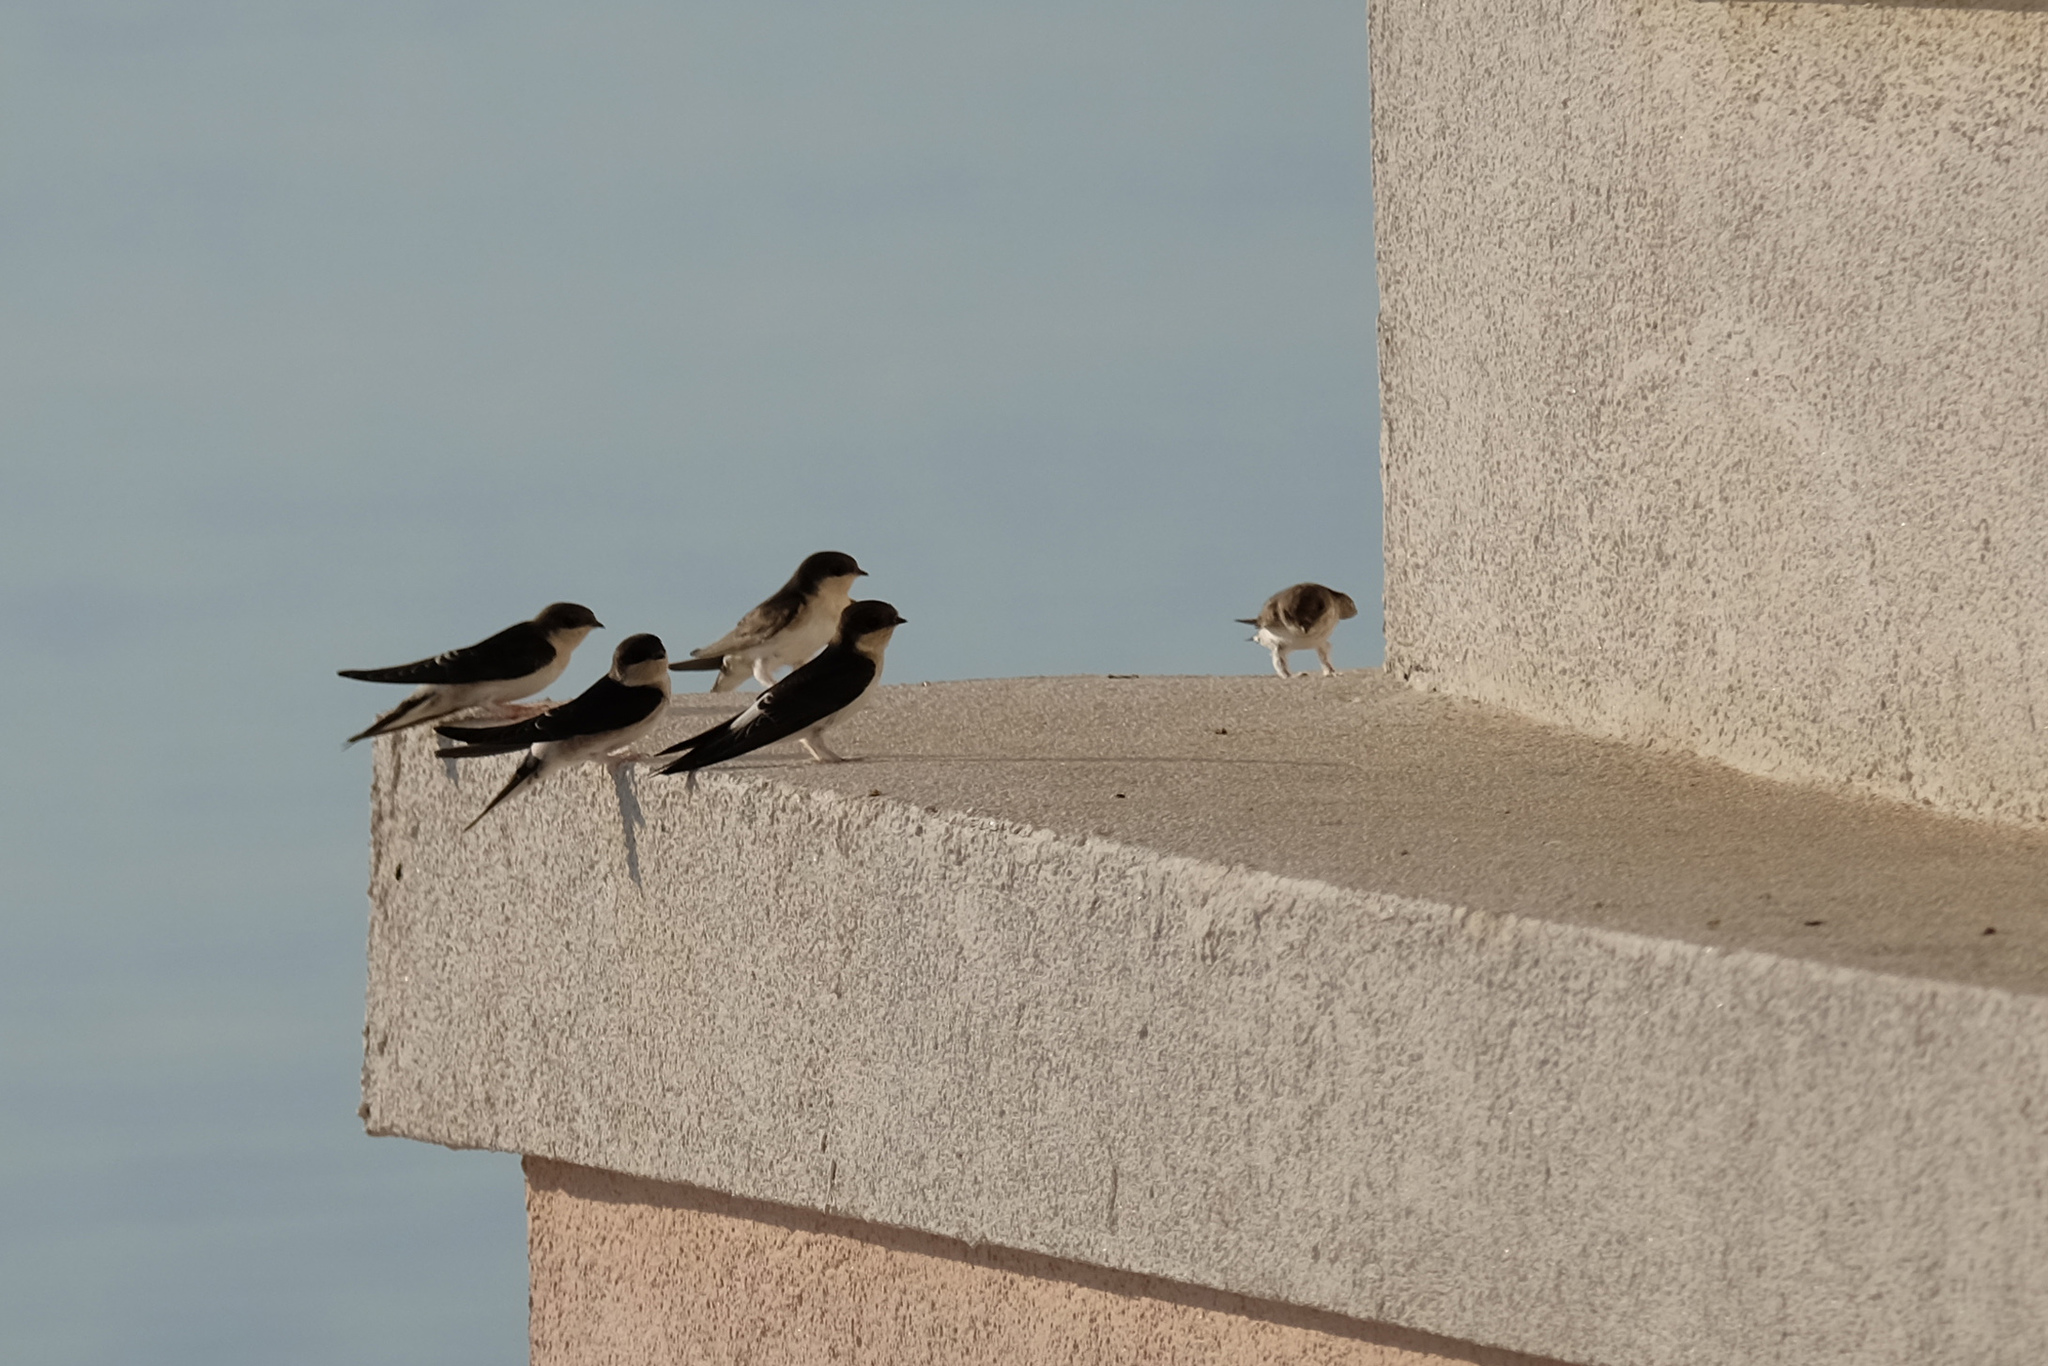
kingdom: Animalia
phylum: Chordata
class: Aves
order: Passeriformes
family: Hirundinidae
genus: Delichon
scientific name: Delichon urbicum
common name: Common house martin
